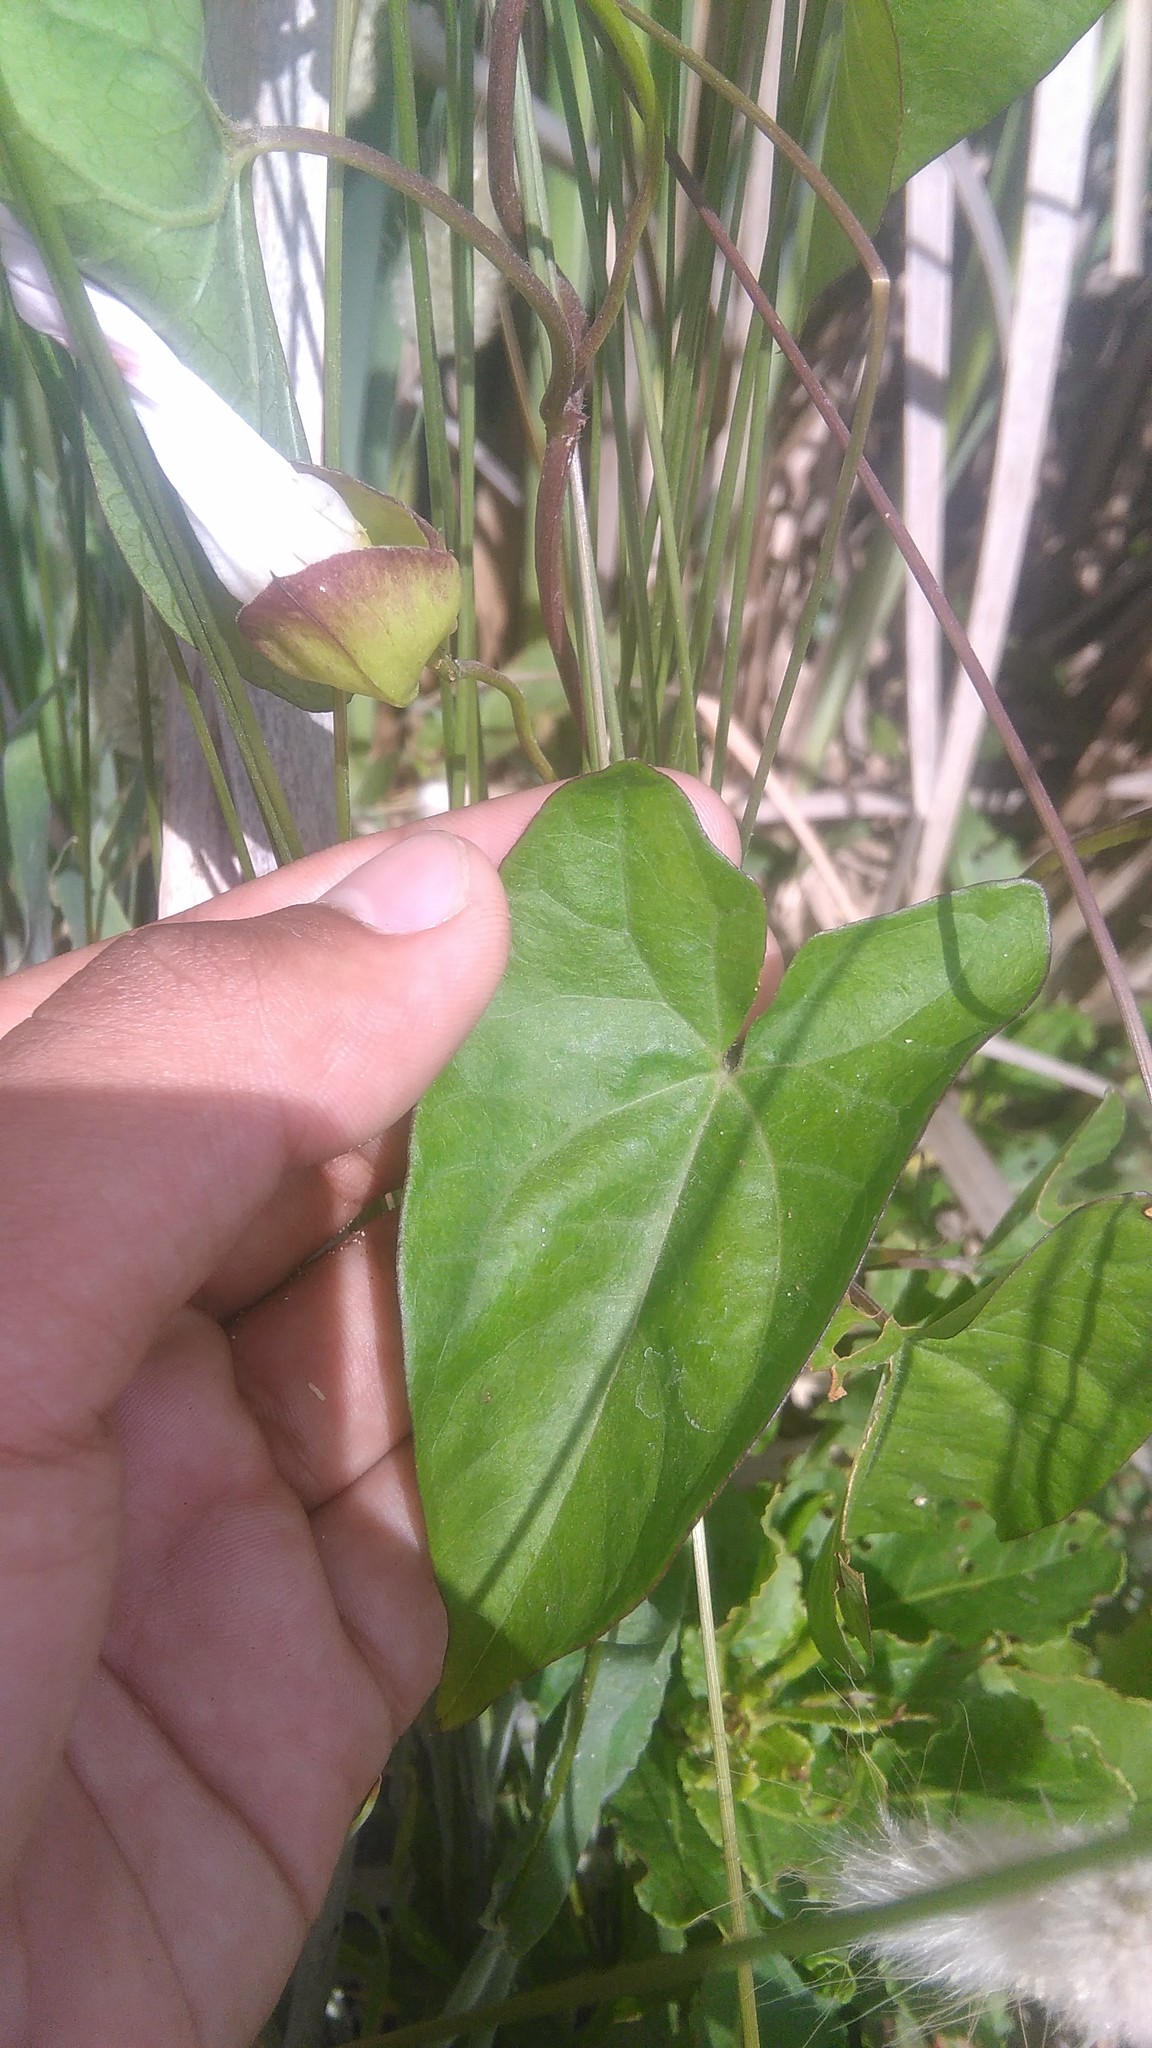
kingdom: Plantae
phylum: Tracheophyta
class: Magnoliopsida
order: Solanales
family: Convolvulaceae
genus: Calystegia
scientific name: Calystegia sepium
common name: Hedge bindweed
